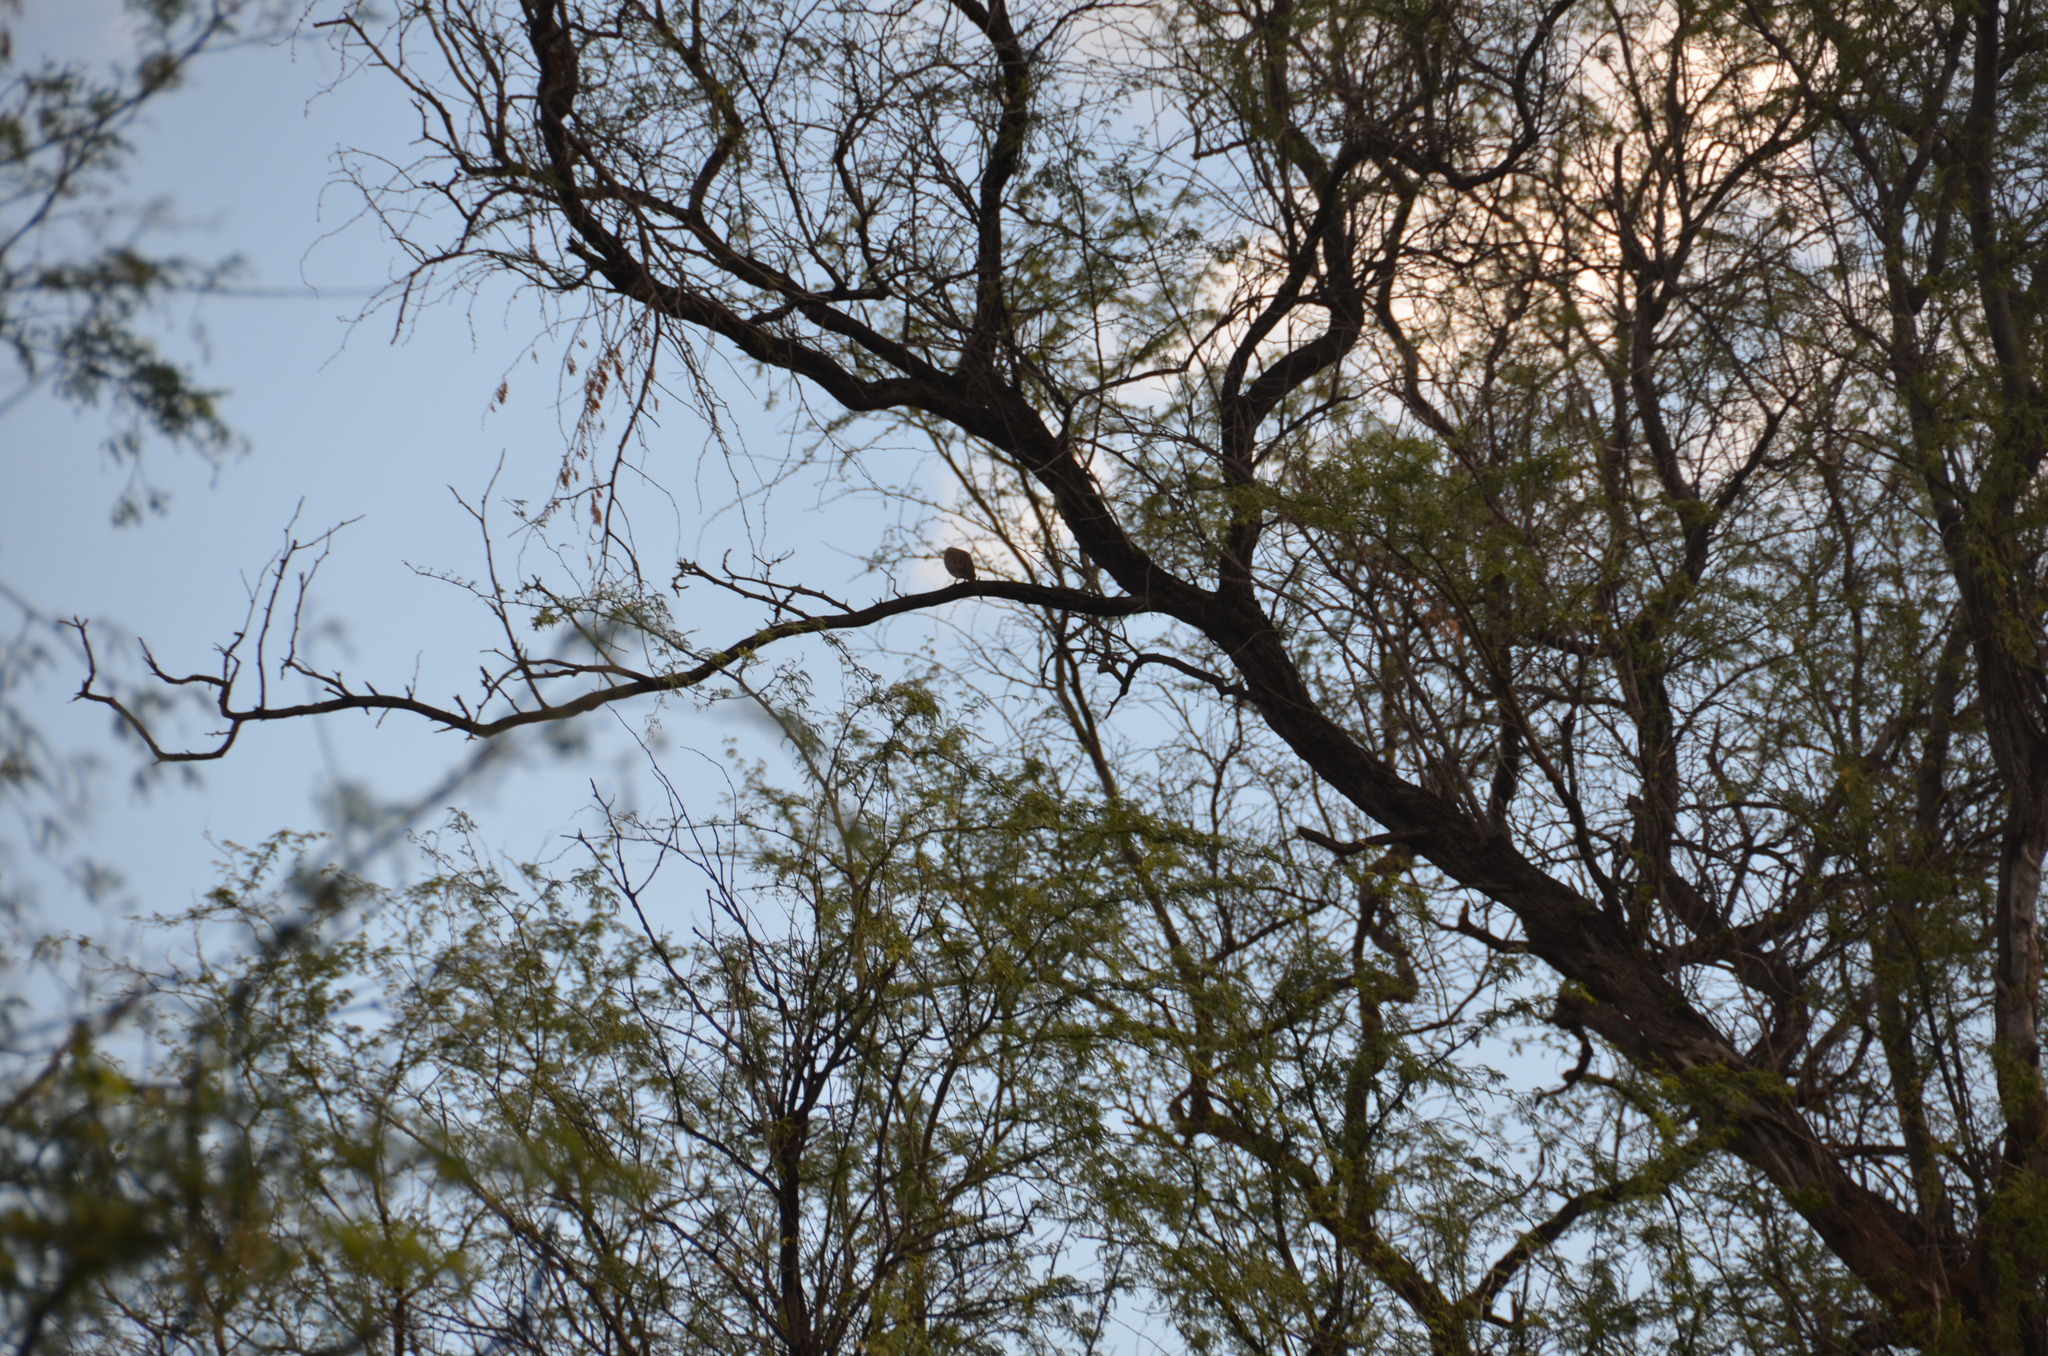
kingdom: Animalia
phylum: Chordata
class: Aves
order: Columbiformes
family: Columbidae
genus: Zenaida
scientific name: Zenaida macroura
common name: Mourning dove
